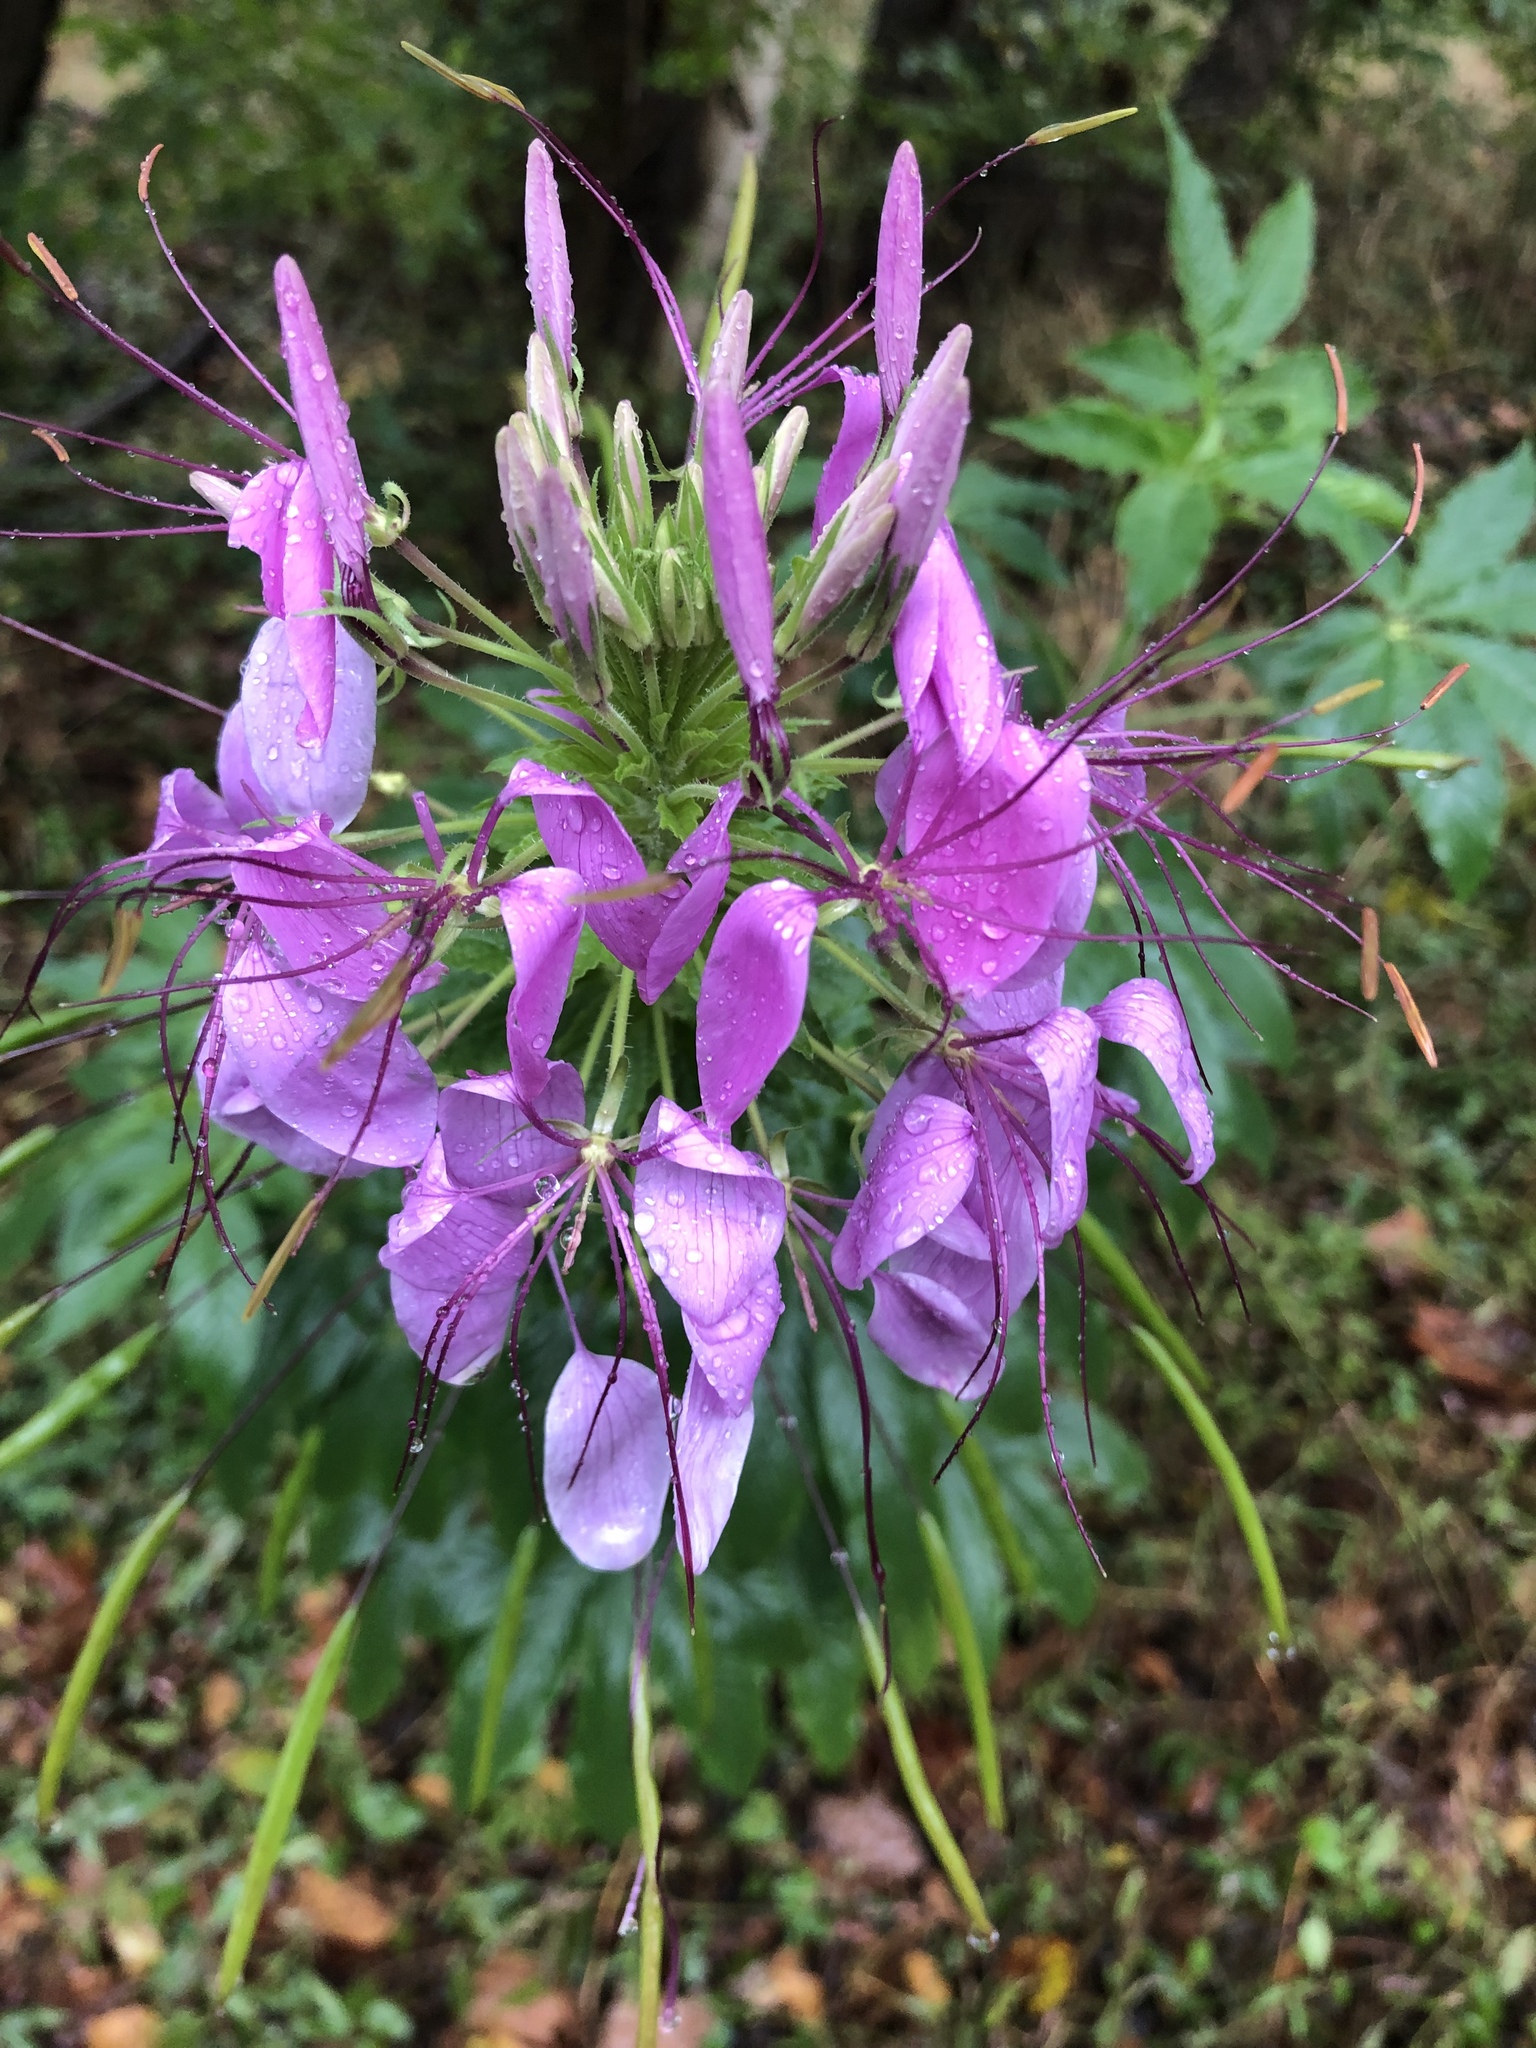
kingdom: Plantae
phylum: Tracheophyta
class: Magnoliopsida
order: Brassicales
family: Cleomaceae
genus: Tarenaya
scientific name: Tarenaya houtteana
